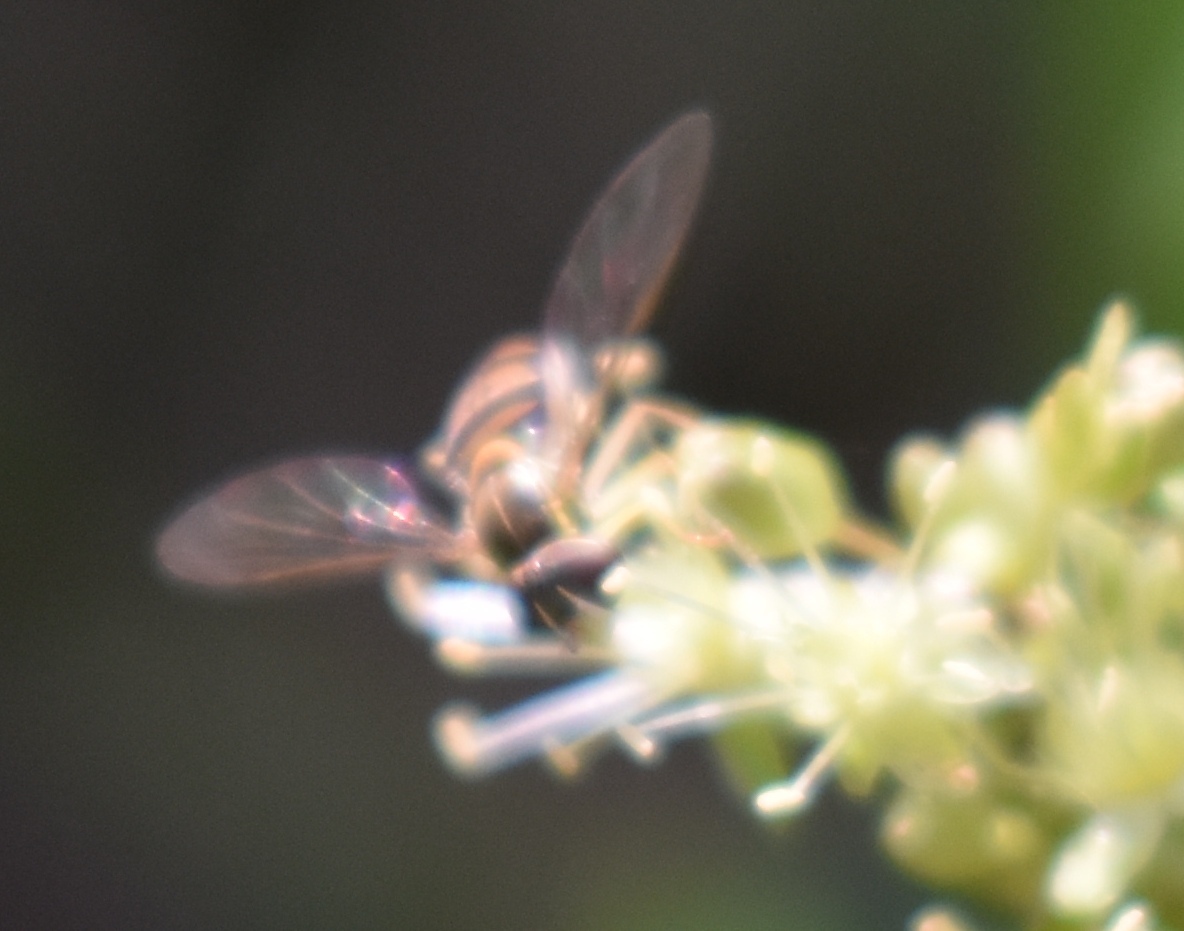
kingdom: Animalia
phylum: Arthropoda
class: Insecta
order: Diptera
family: Syrphidae
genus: Toxomerus
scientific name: Toxomerus marginatus
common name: Syrphid fly
